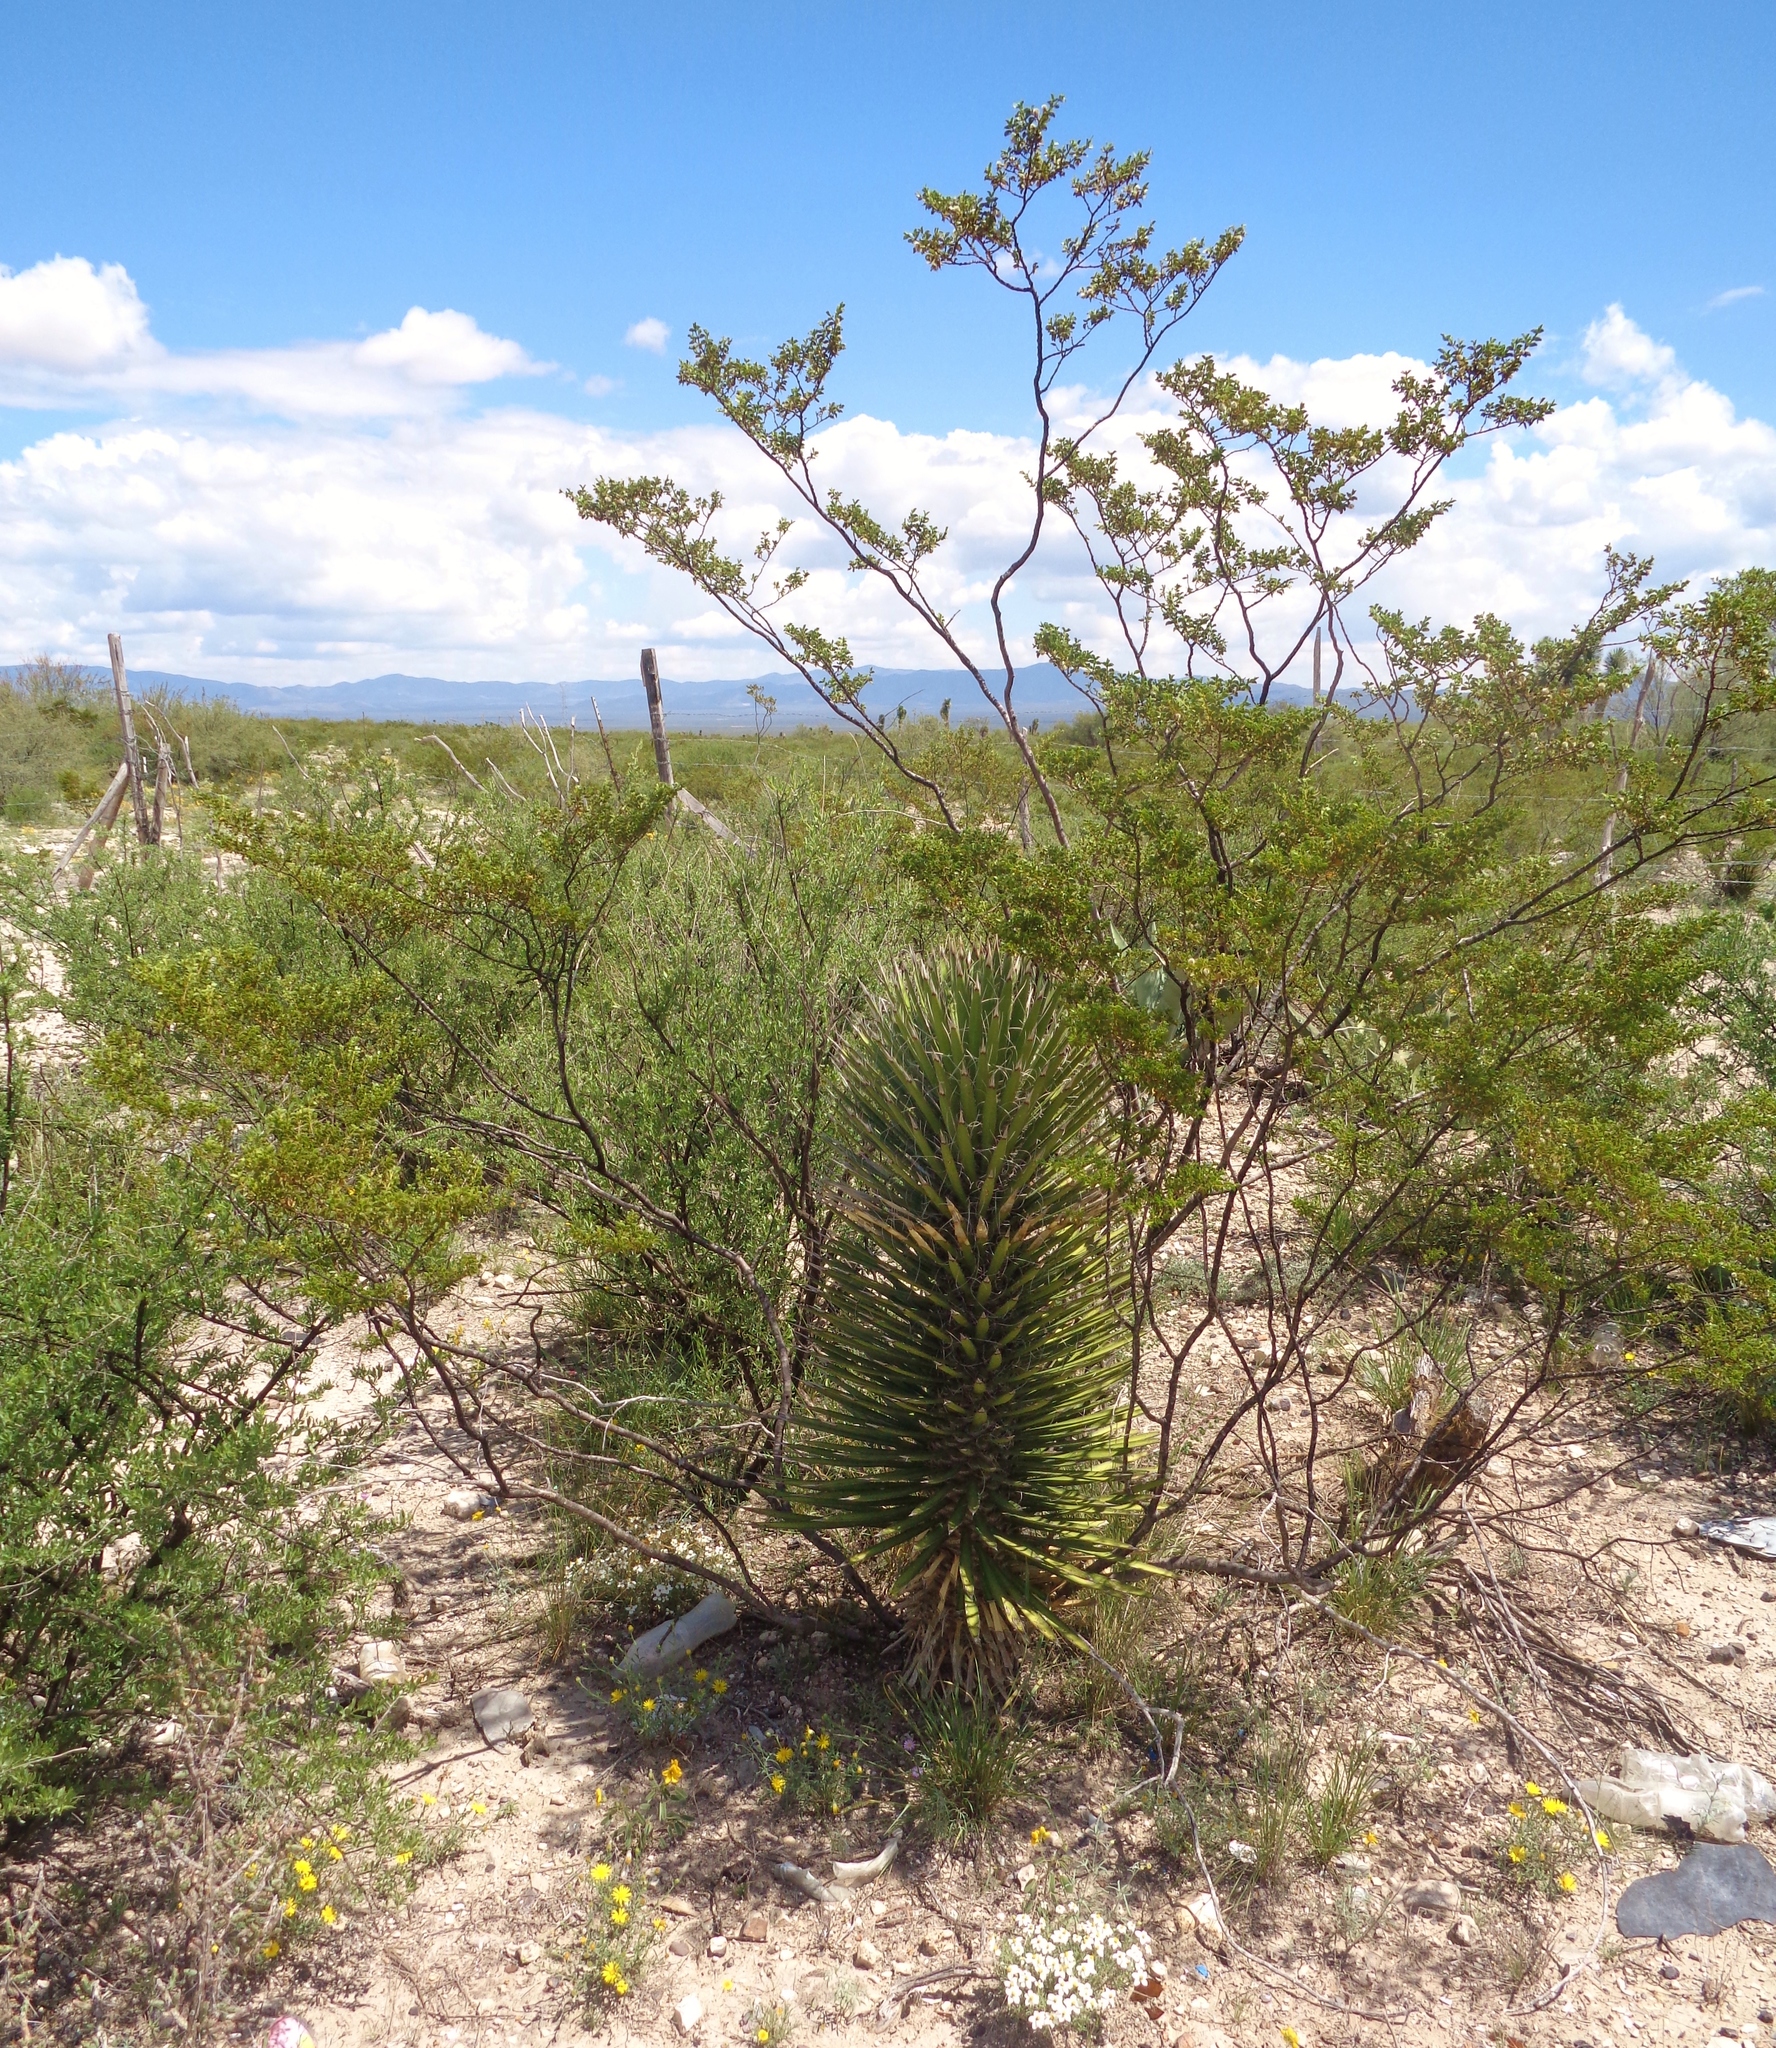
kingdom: Plantae
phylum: Tracheophyta
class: Liliopsida
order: Asparagales
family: Asparagaceae
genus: Yucca
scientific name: Yucca filifera
